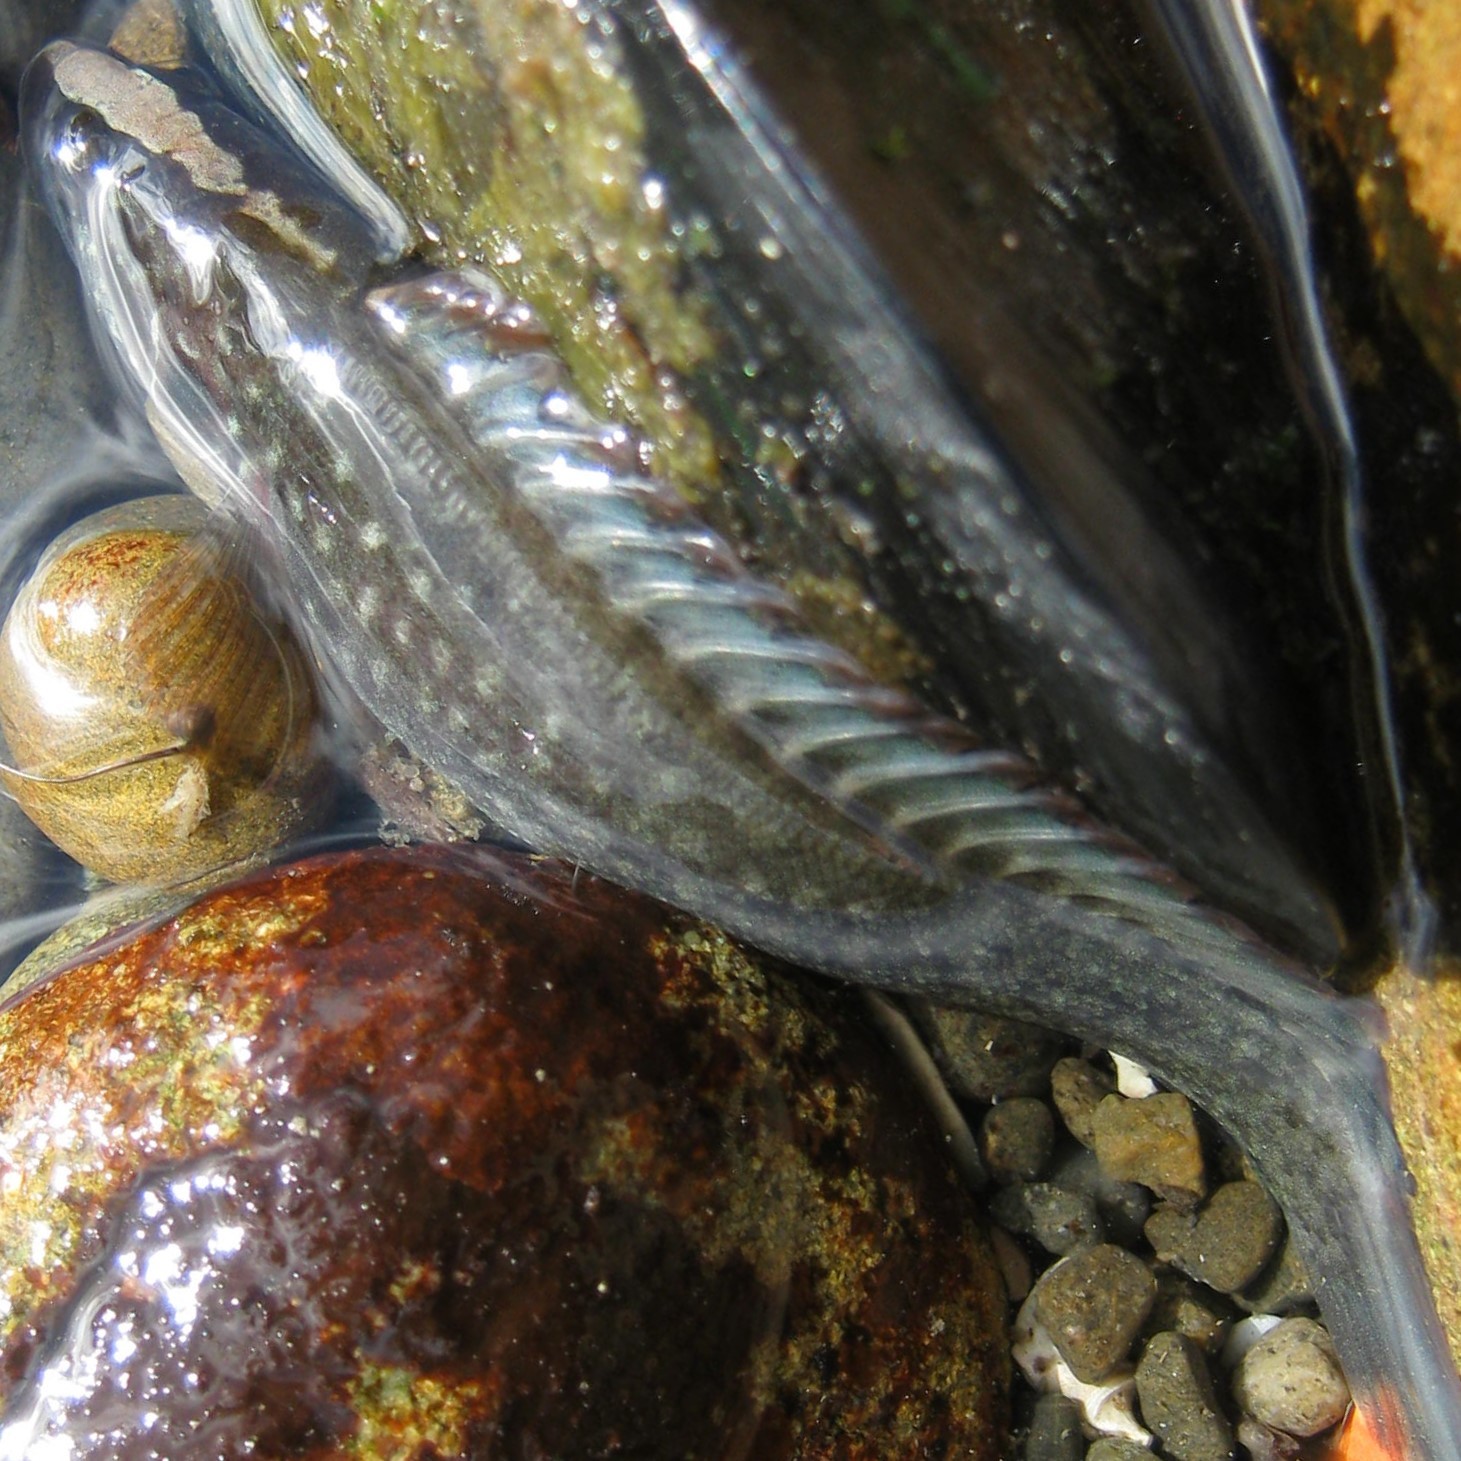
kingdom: Animalia
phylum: Chordata
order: Perciformes
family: Plesiopidae
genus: Acanthoclinus
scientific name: Acanthoclinus fuscus
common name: Olive rockfish
